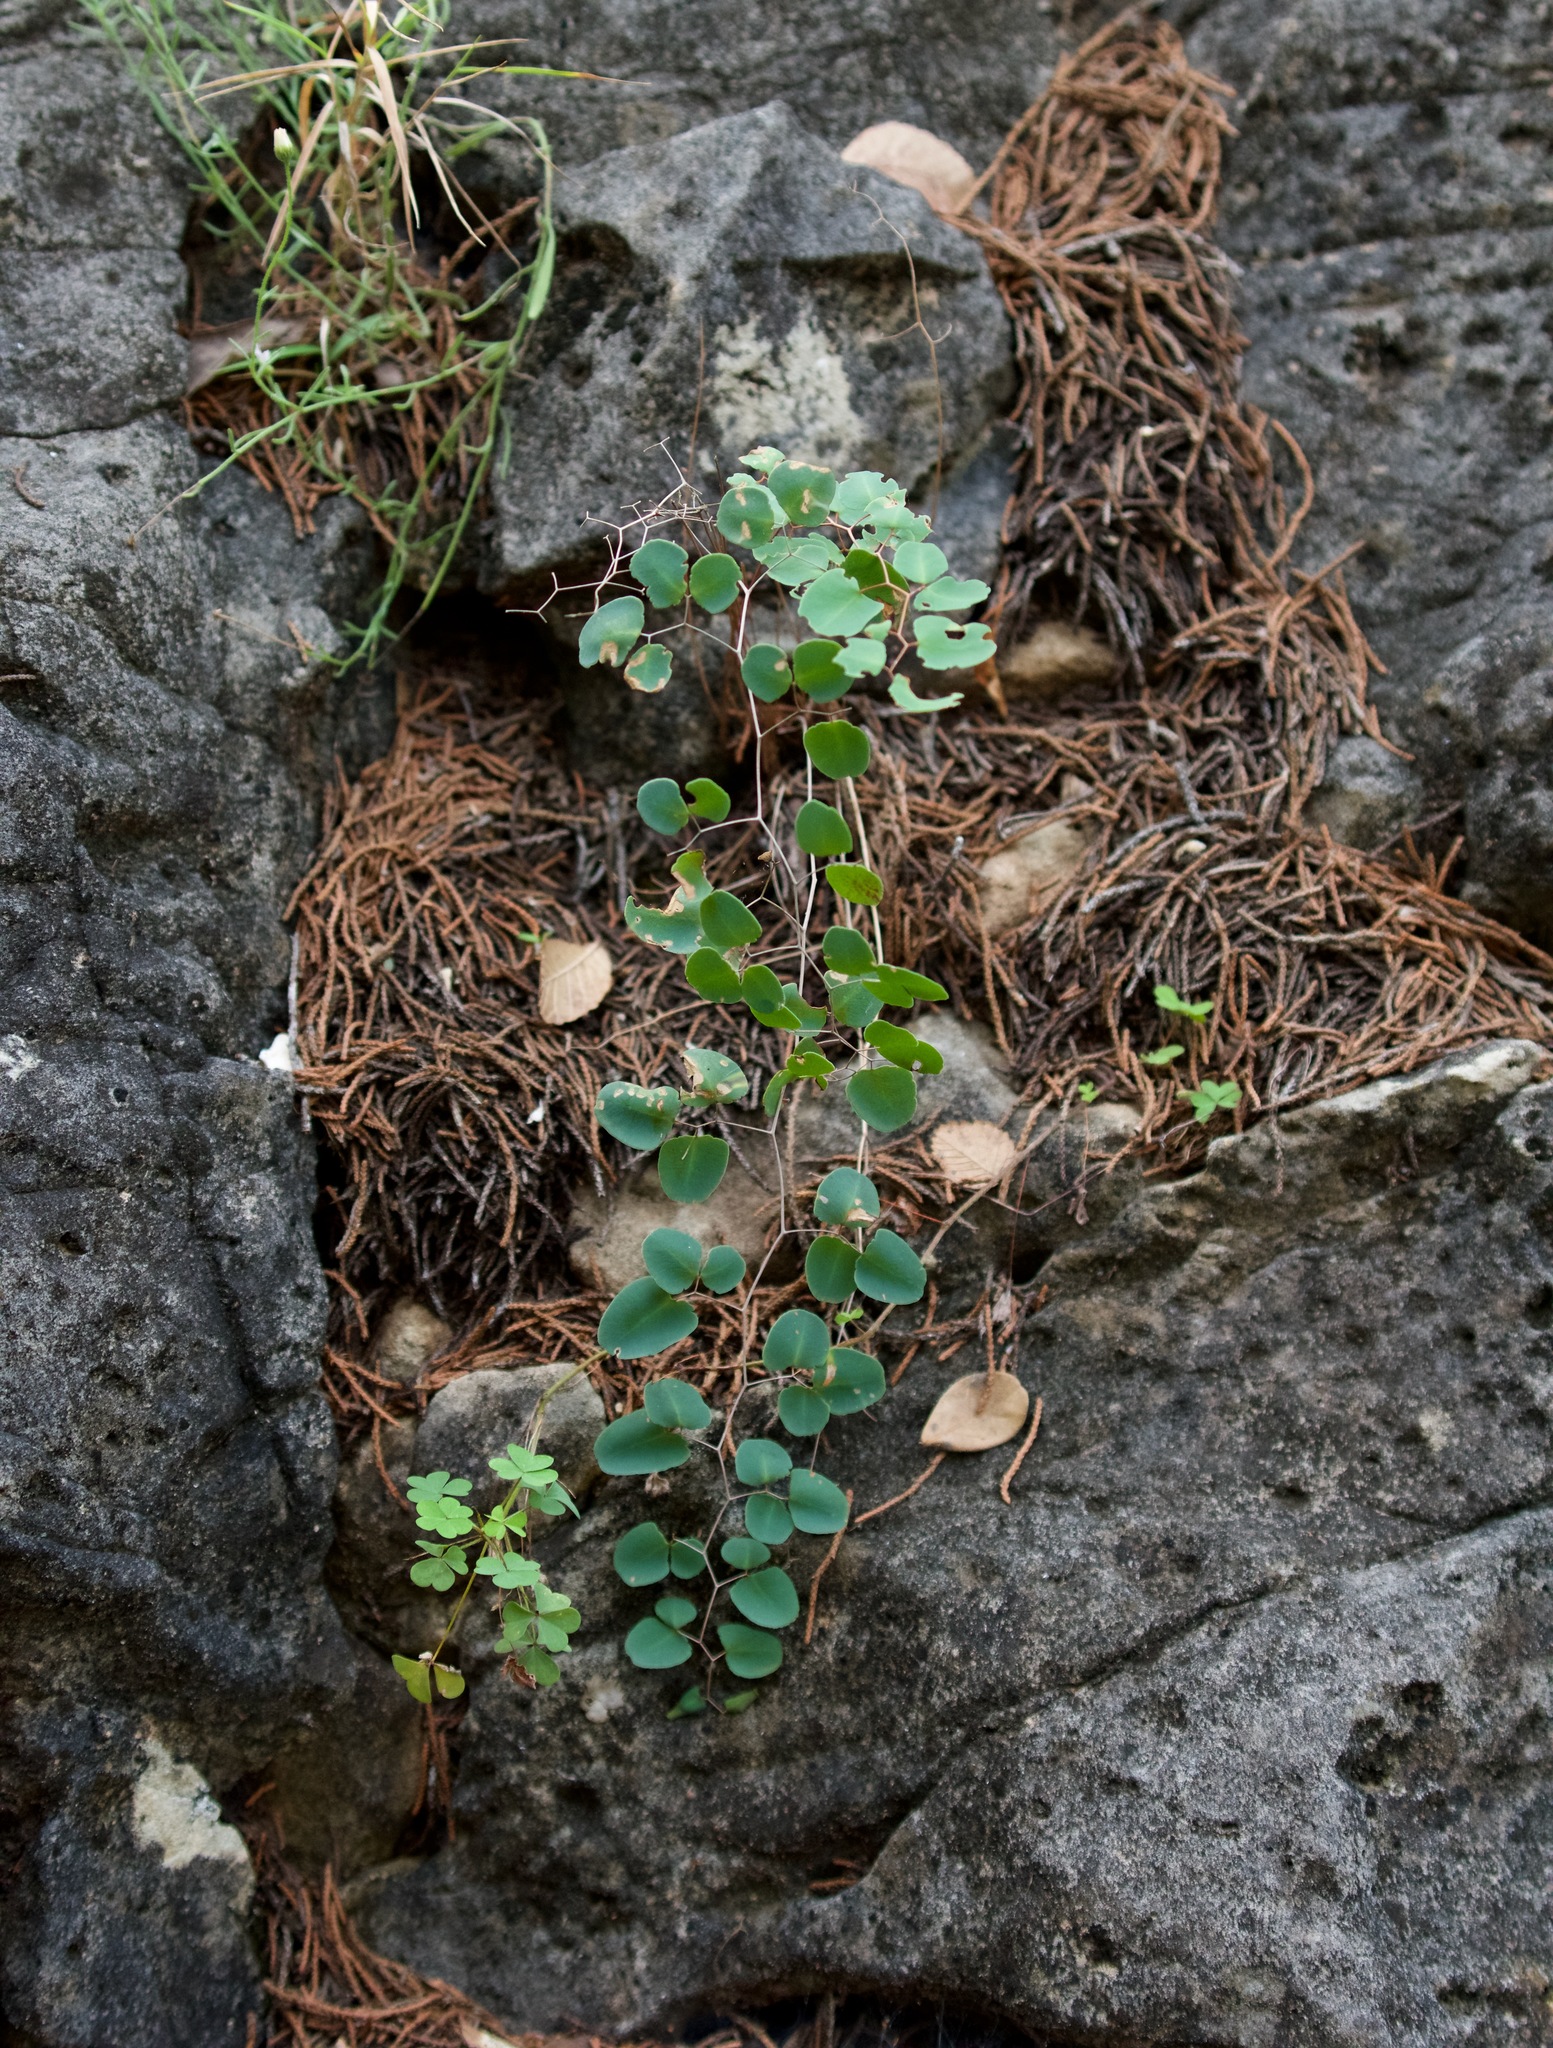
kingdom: Plantae
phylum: Tracheophyta
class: Polypodiopsida
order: Polypodiales
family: Pteridaceae
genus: Pellaea
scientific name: Pellaea ovata
